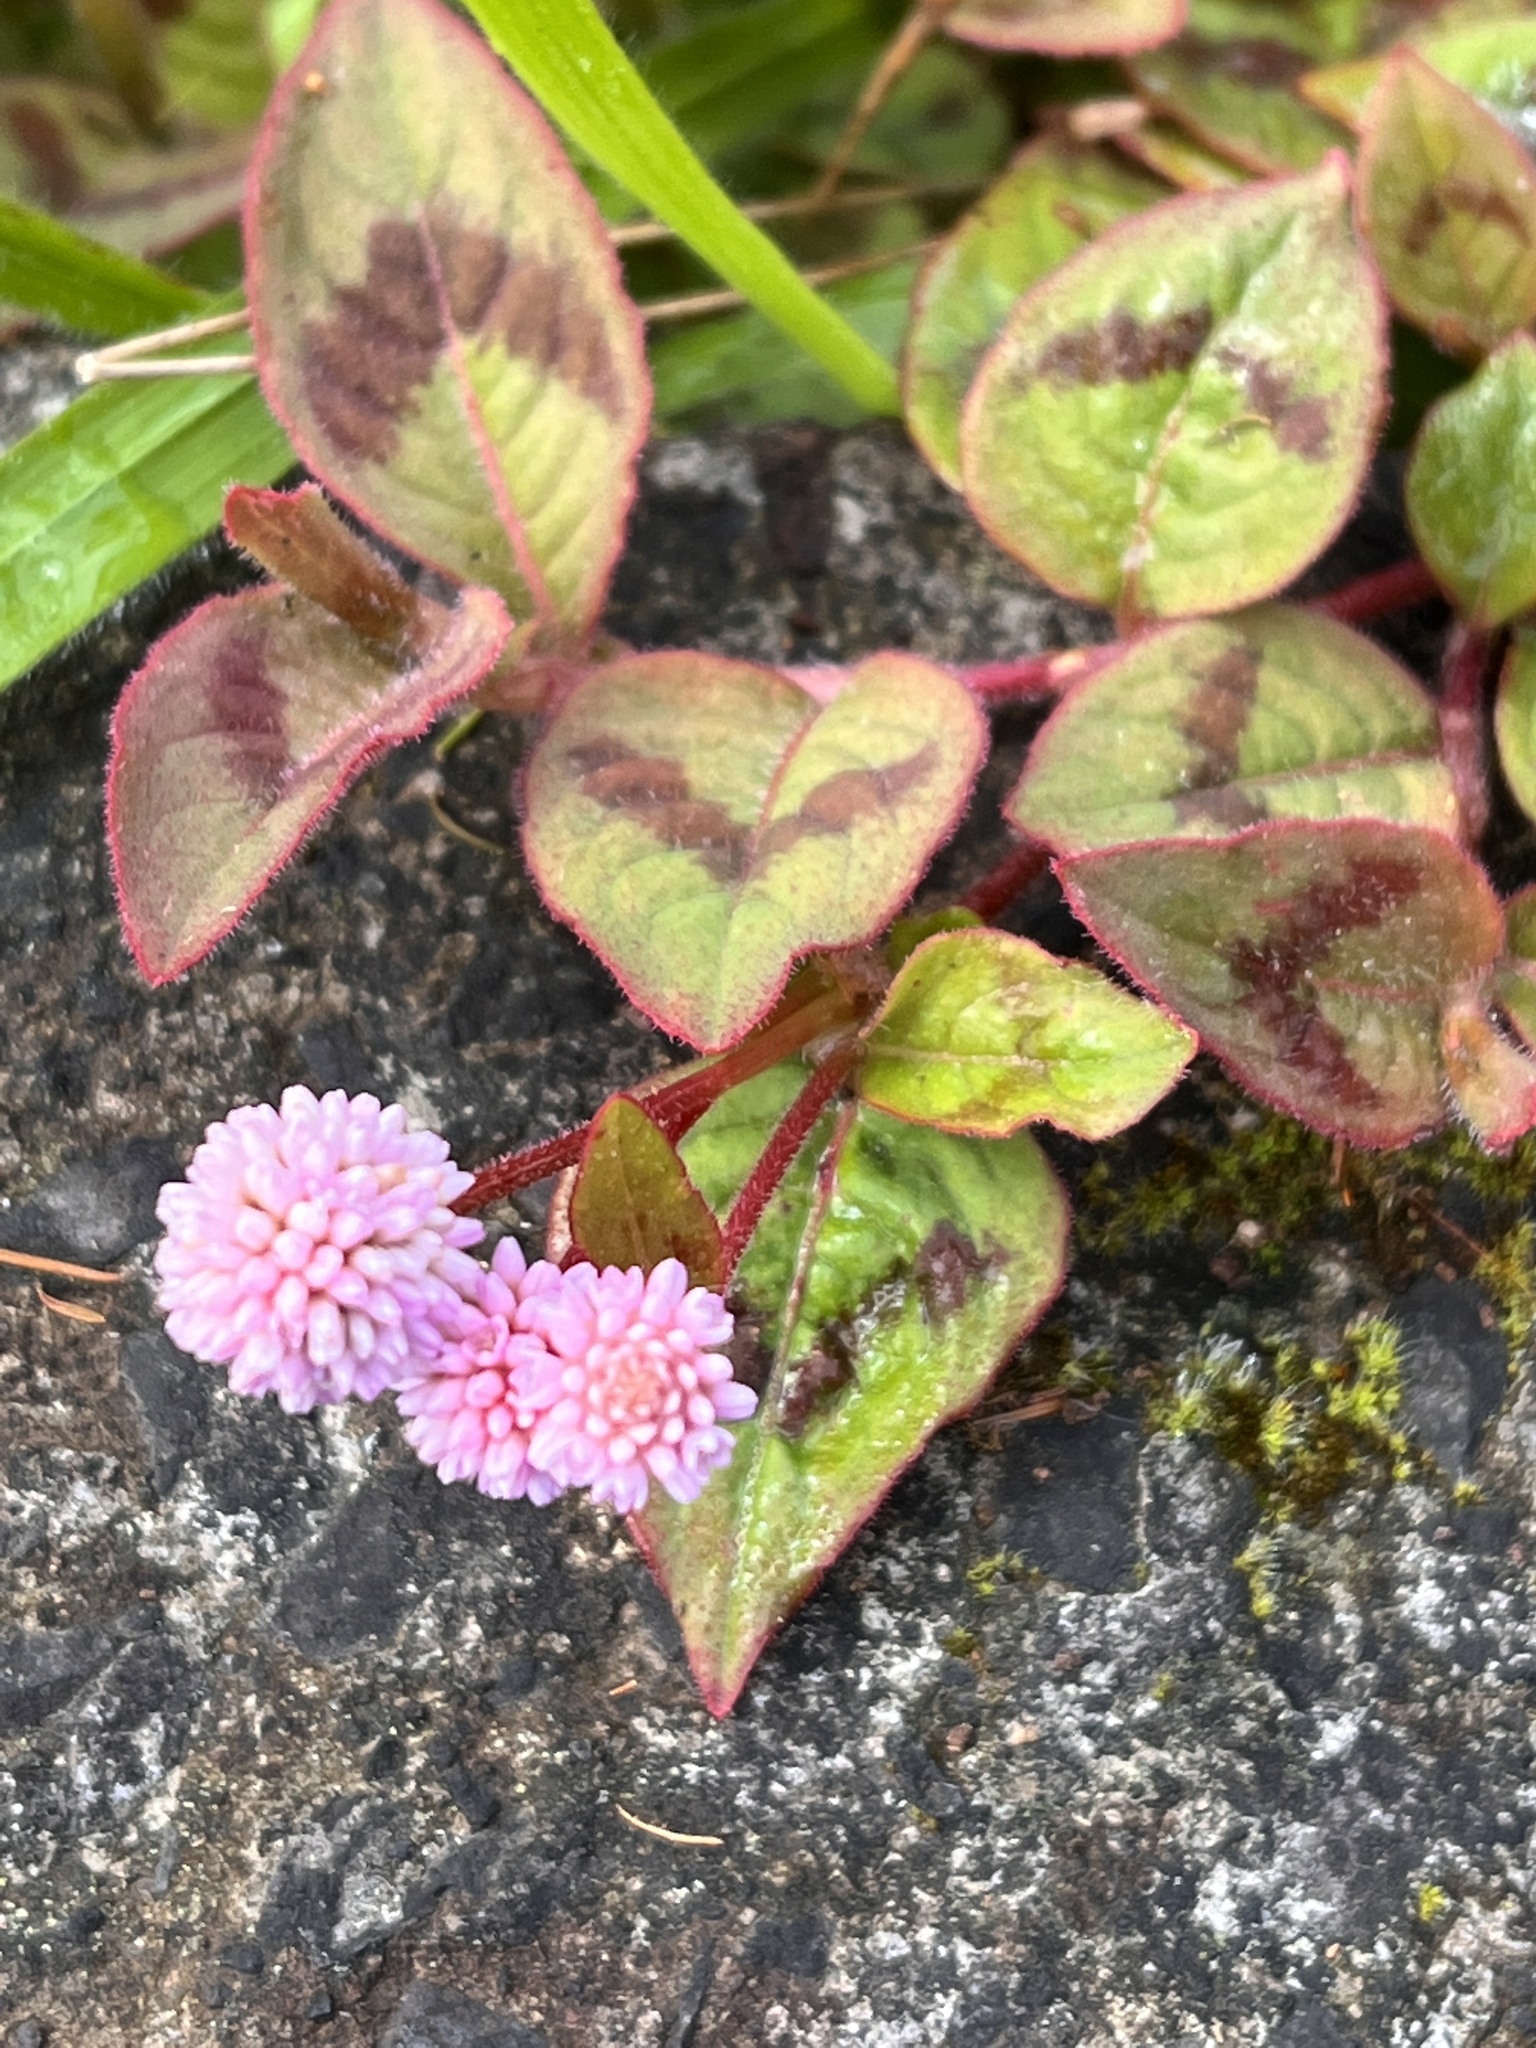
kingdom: Plantae
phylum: Tracheophyta
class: Magnoliopsida
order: Caryophyllales
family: Polygonaceae
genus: Persicaria
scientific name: Persicaria capitata
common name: Pinkhead smartweed
